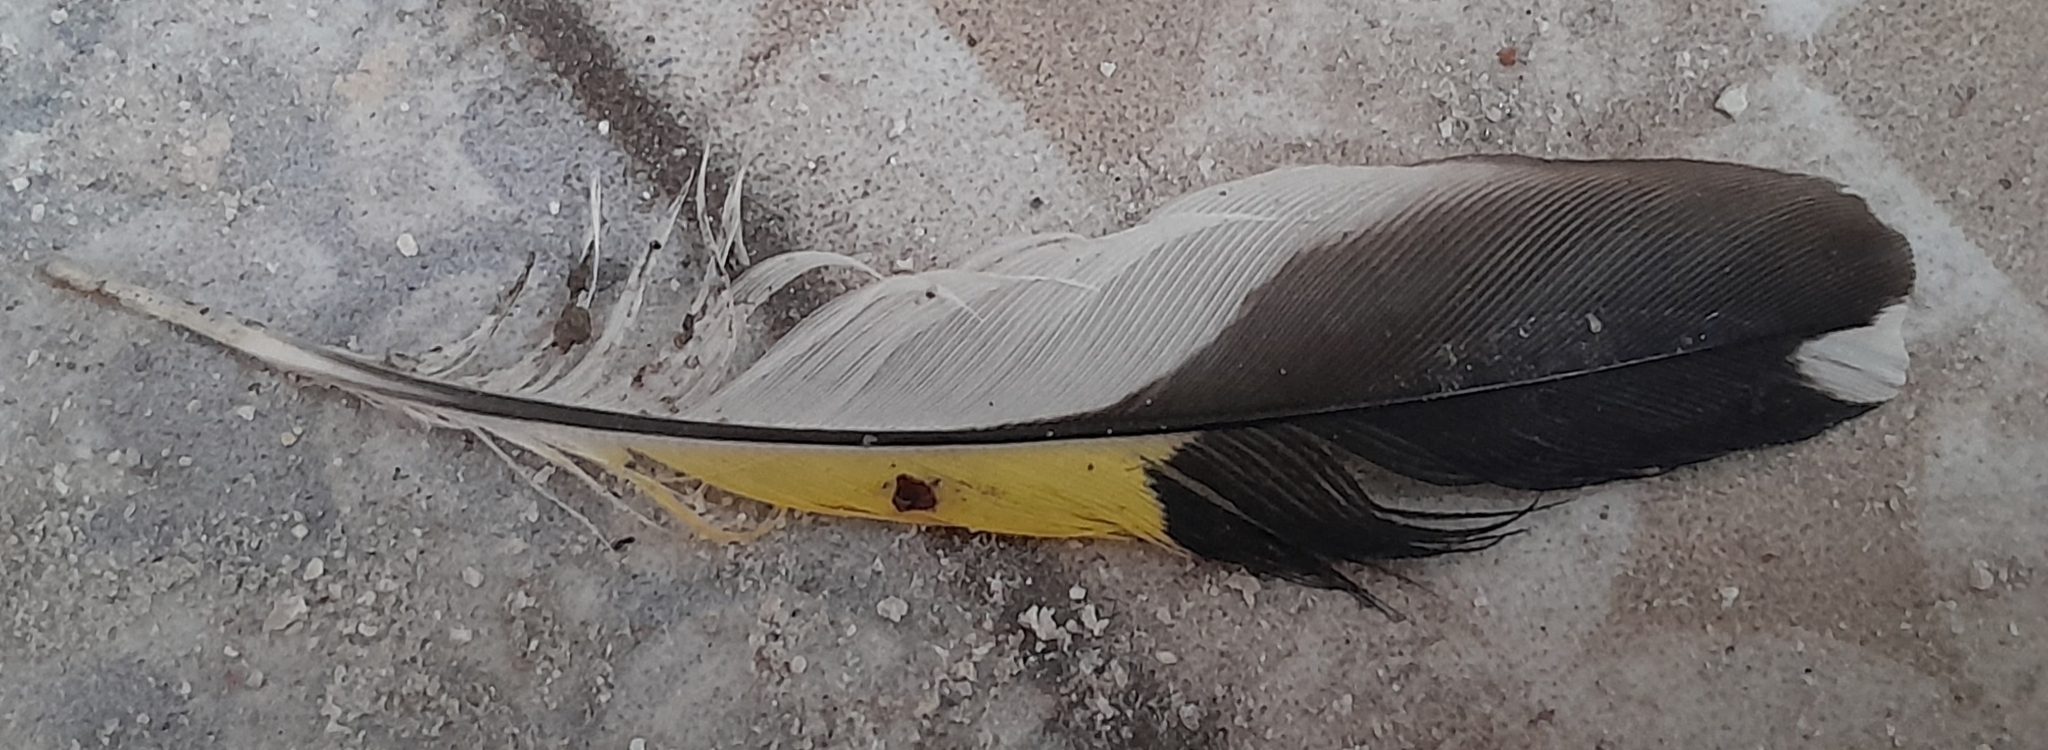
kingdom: Animalia
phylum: Chordata
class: Aves
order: Passeriformes
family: Fringillidae
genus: Carduelis
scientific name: Carduelis carduelis
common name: European goldfinch
